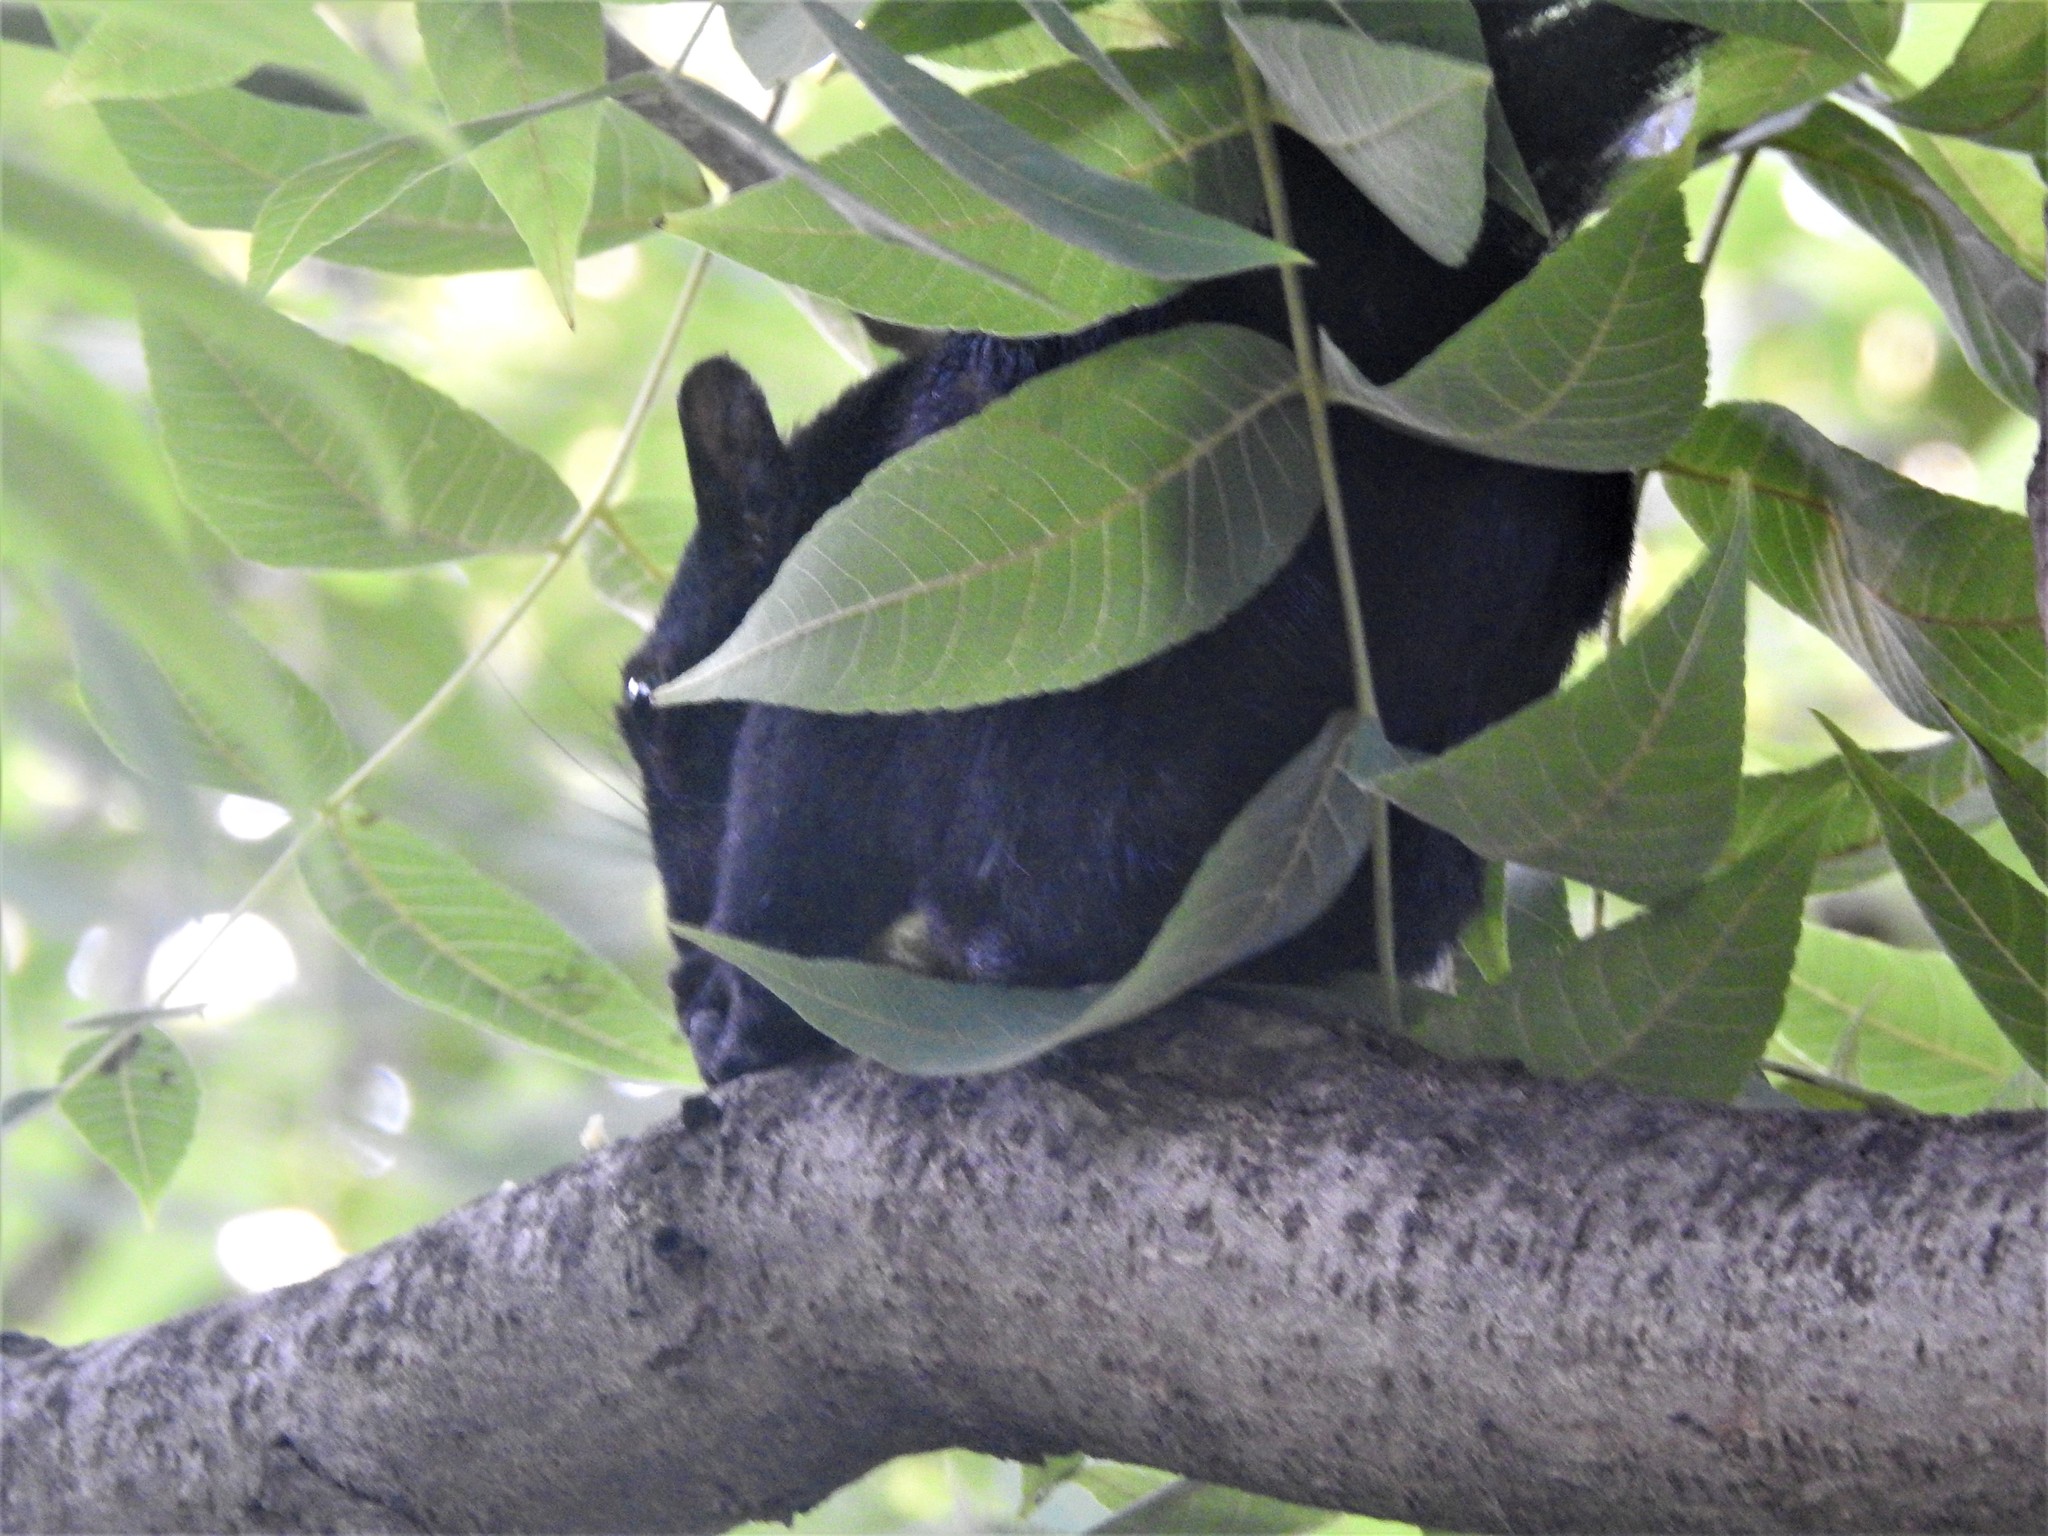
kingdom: Animalia
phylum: Chordata
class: Mammalia
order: Rodentia
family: Sciuridae
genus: Sciurus
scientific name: Sciurus aureogaster
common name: Red-bellied squirrel
